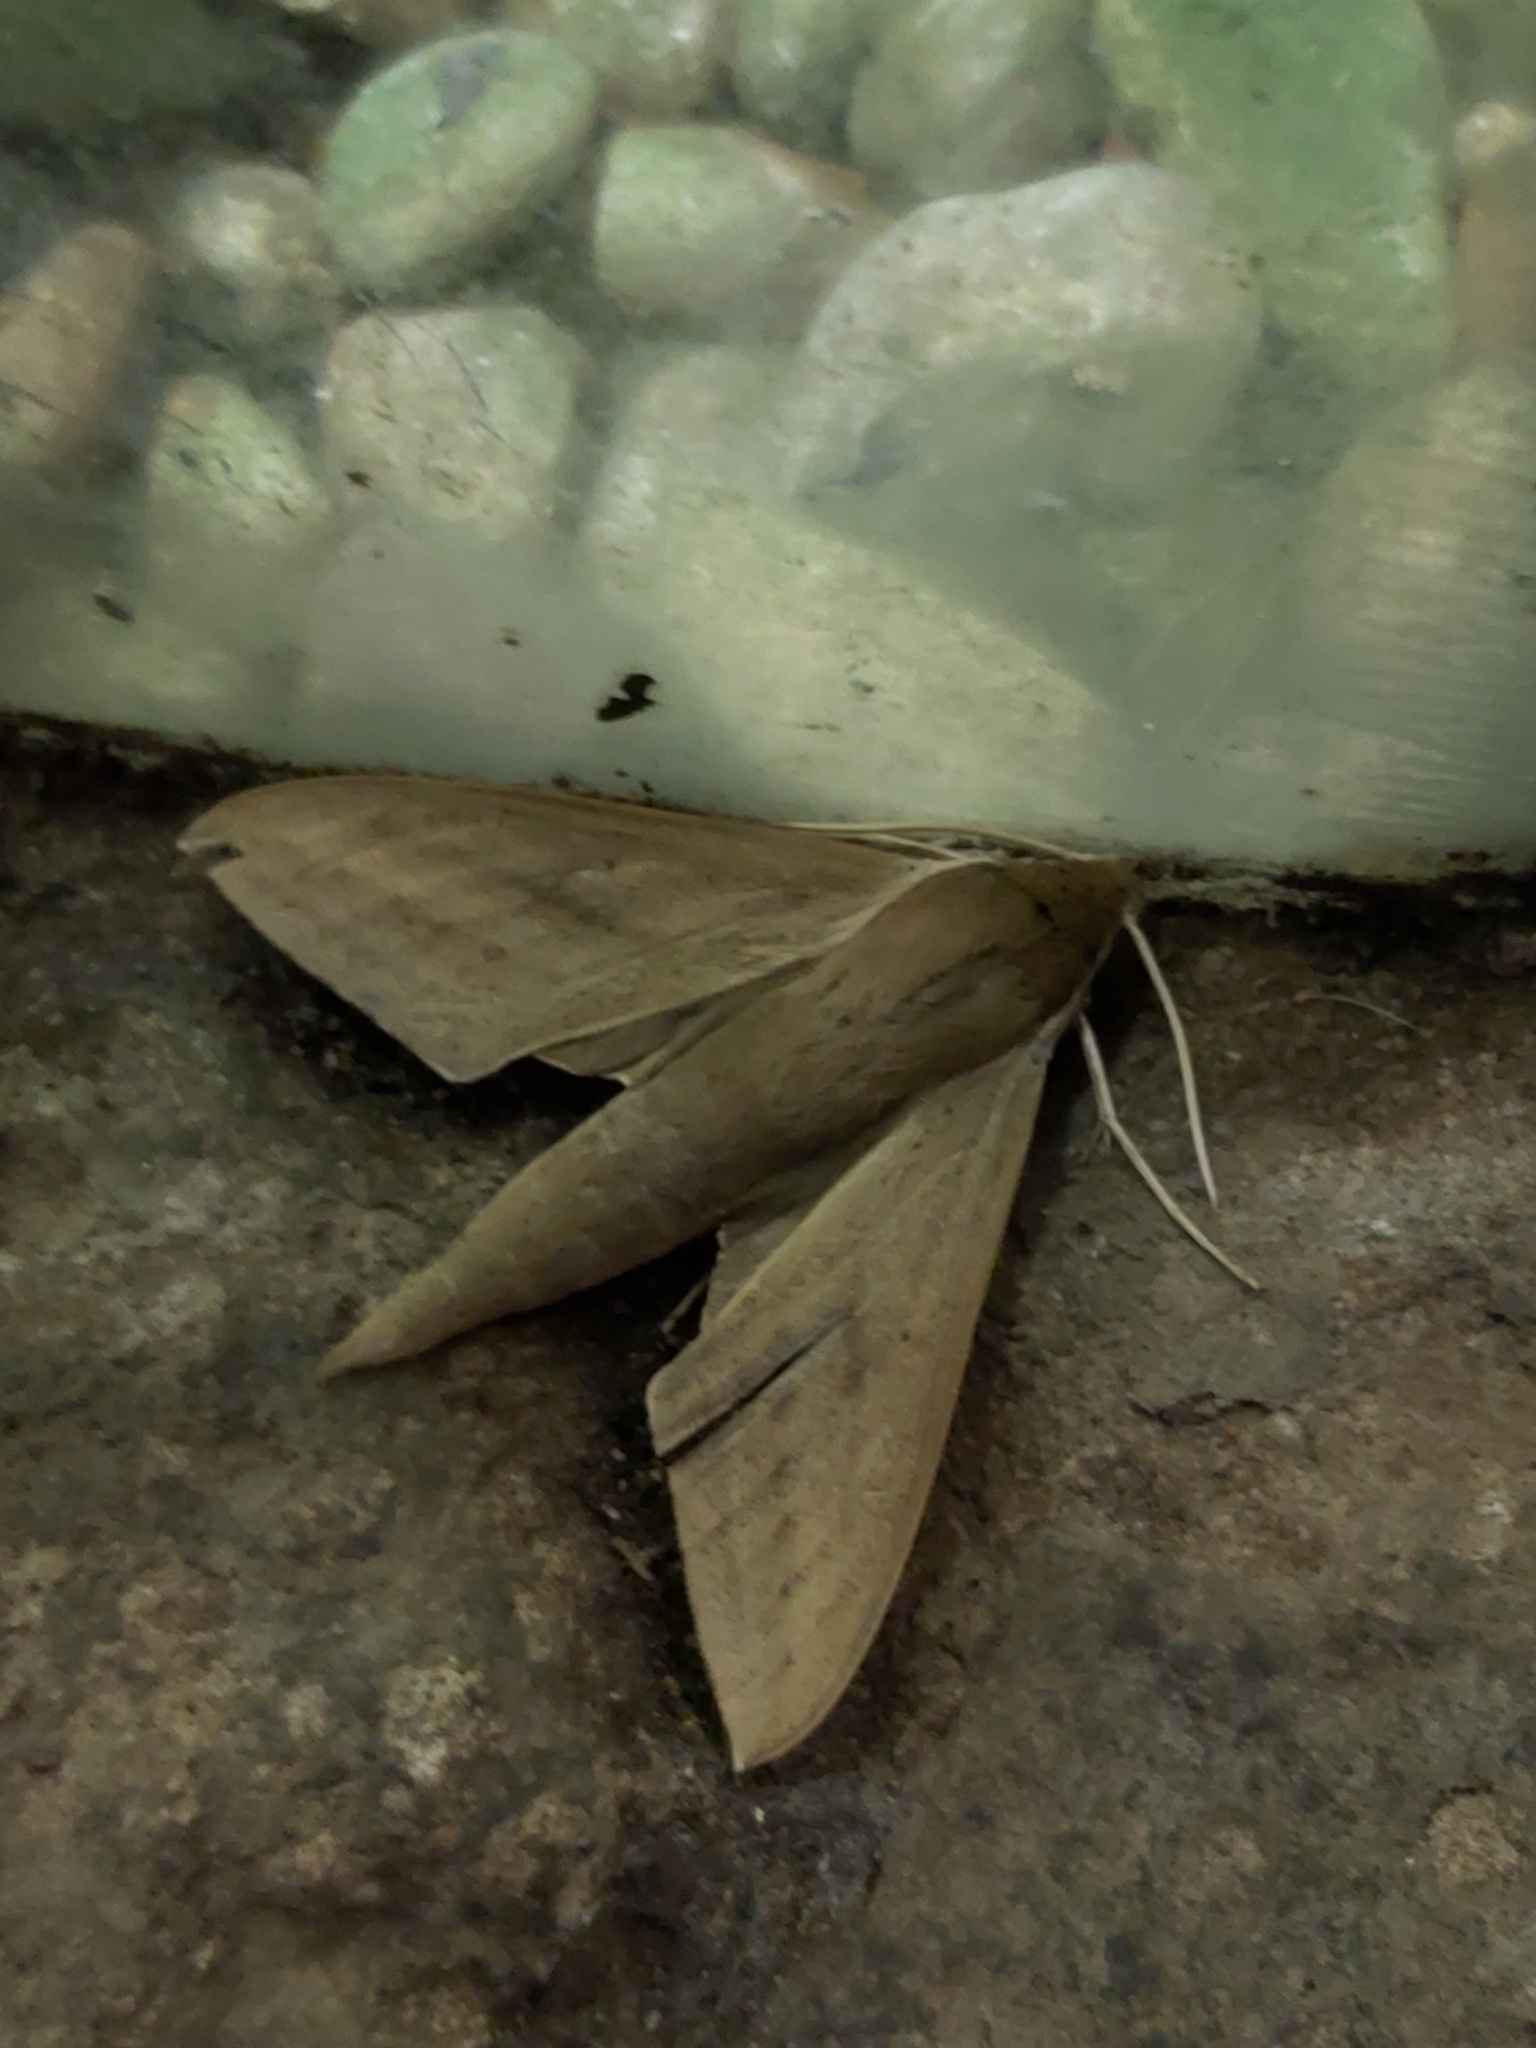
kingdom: Animalia
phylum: Arthropoda
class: Insecta
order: Lepidoptera
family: Sphingidae
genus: Theretra
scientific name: Theretra latreillii
